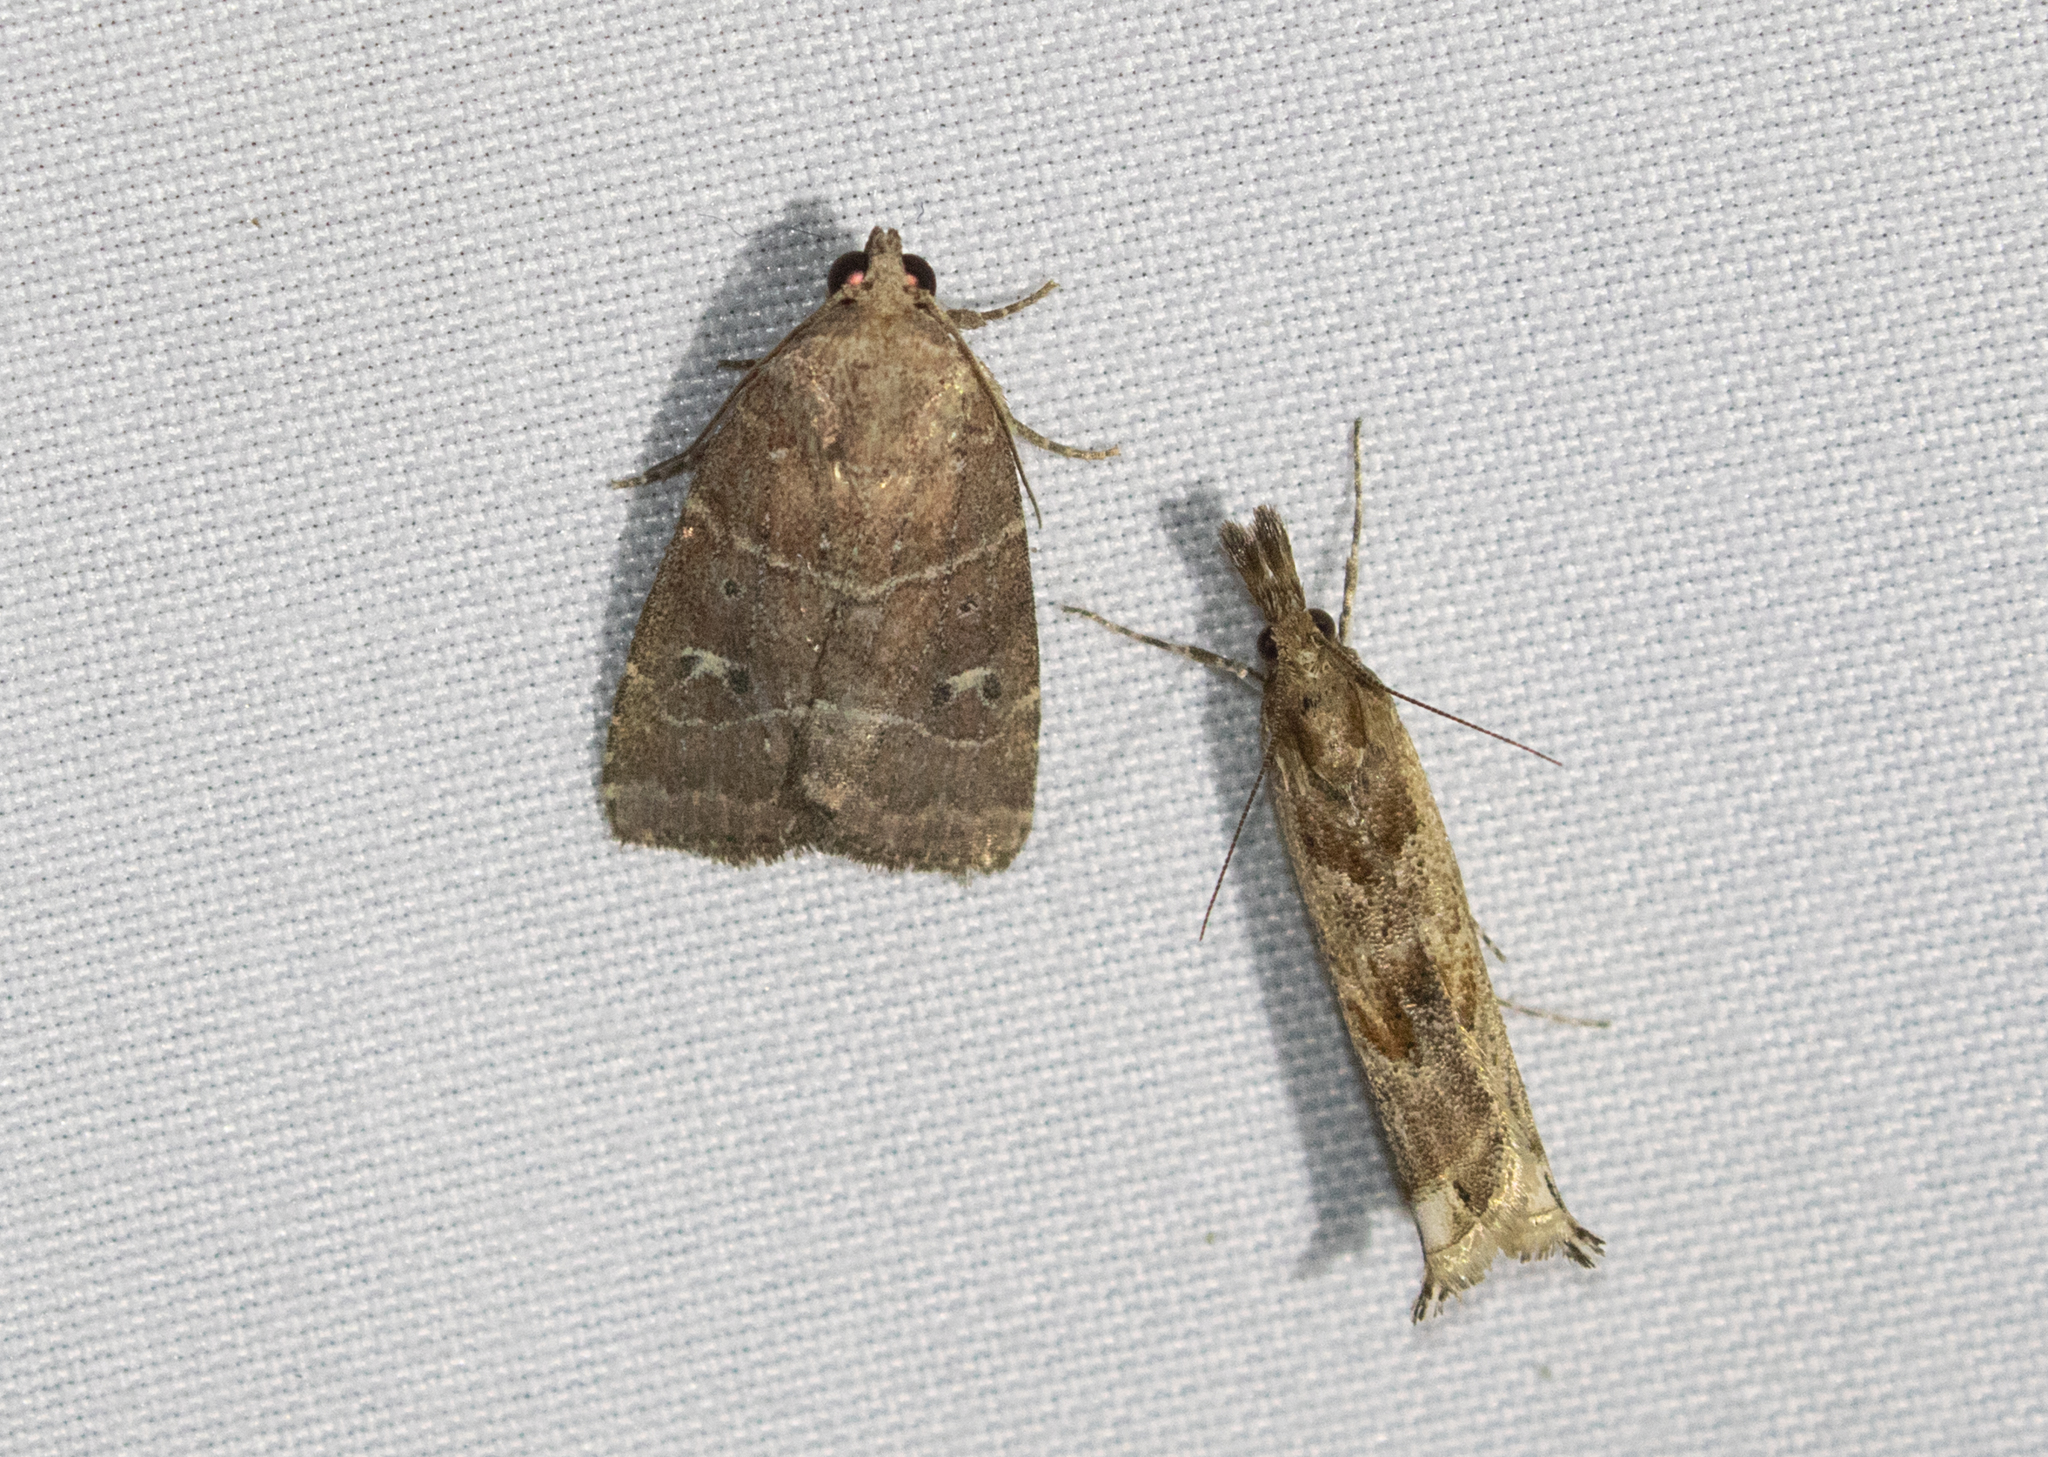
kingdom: Animalia
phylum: Arthropoda
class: Insecta
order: Lepidoptera
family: Noctuidae
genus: Elaphria
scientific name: Elaphria grata
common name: Grateful midget moth
